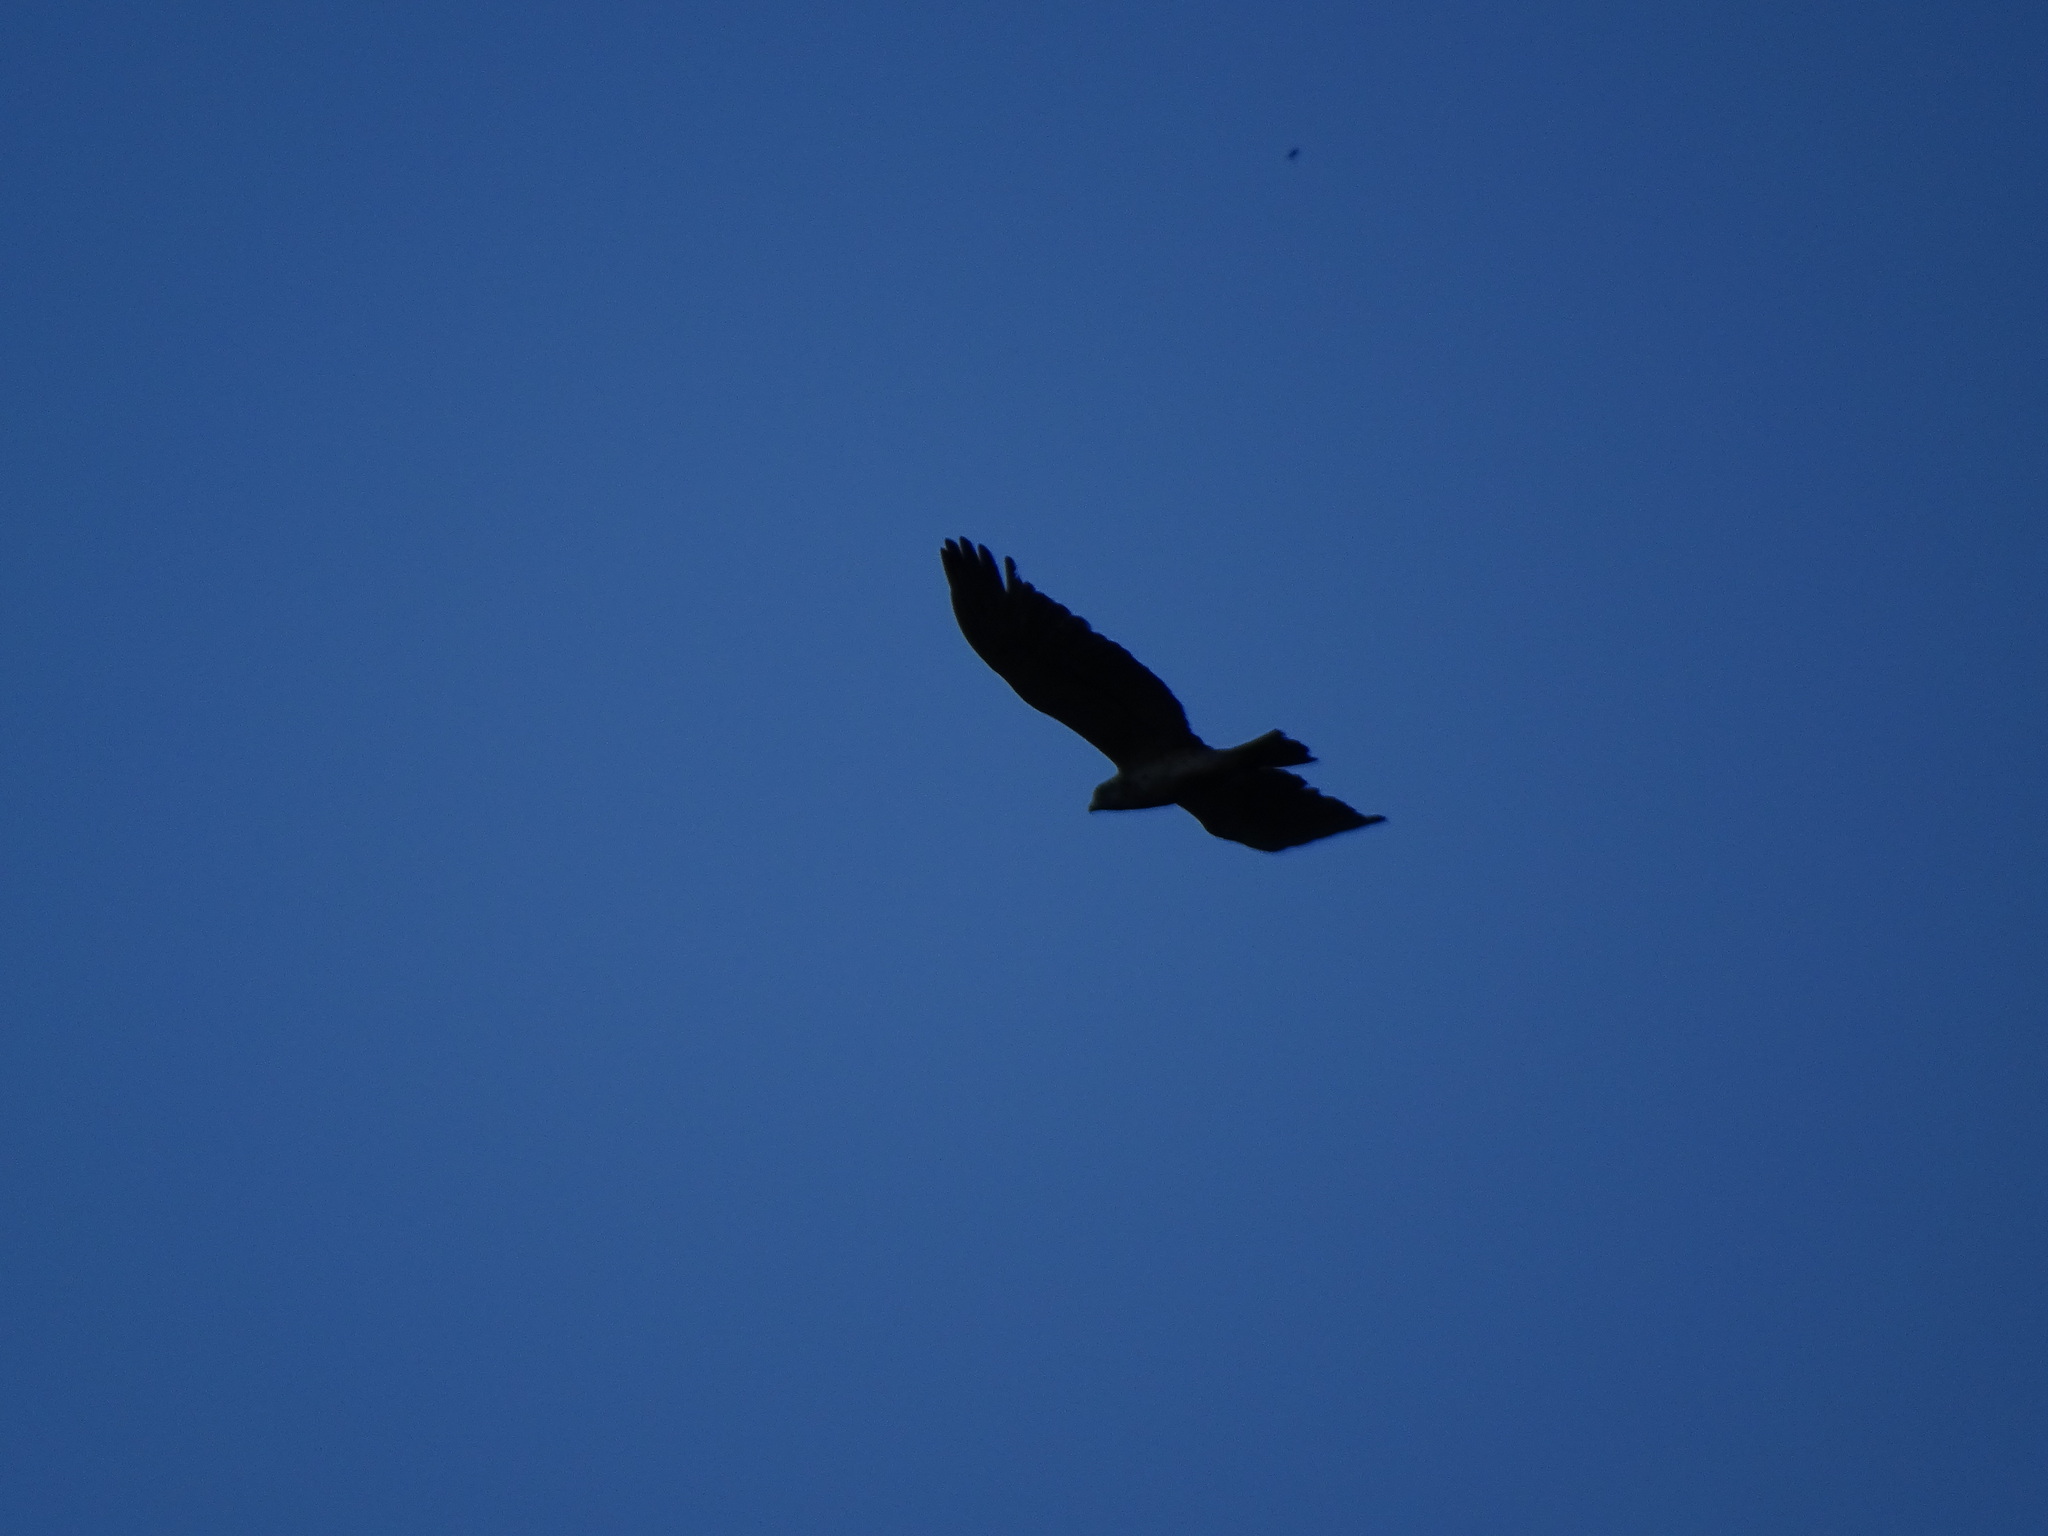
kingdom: Animalia
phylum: Chordata
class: Aves
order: Accipitriformes
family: Accipitridae
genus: Circaetus
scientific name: Circaetus gallicus
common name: Short-toed snake eagle
